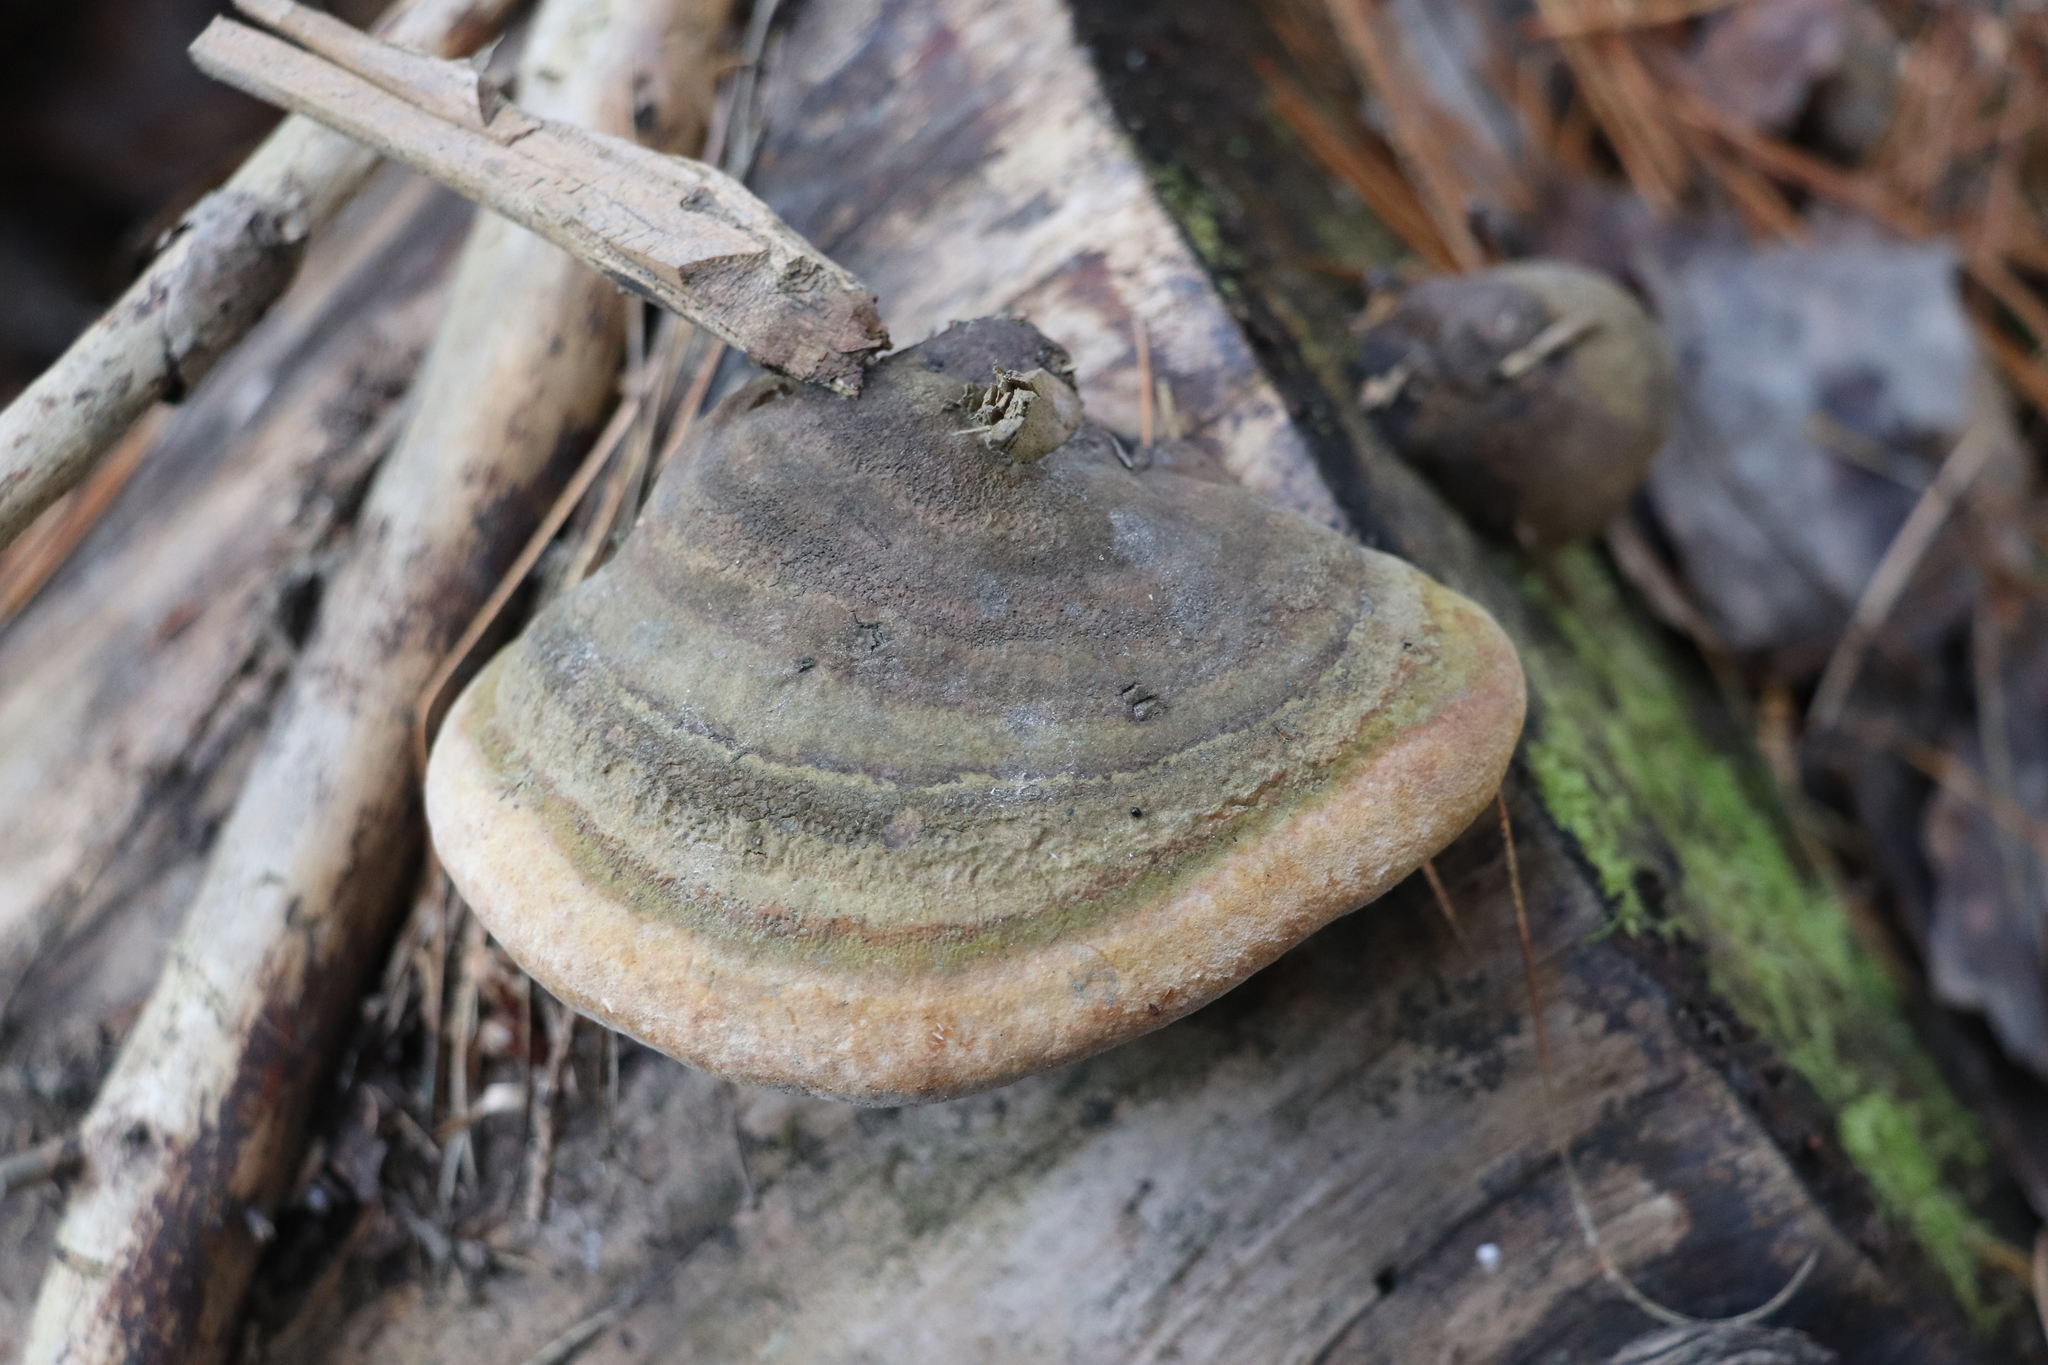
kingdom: Fungi
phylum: Basidiomycota
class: Agaricomycetes
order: Hymenochaetales
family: Hymenochaetaceae
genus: Phellinus
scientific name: Phellinus hartigii
